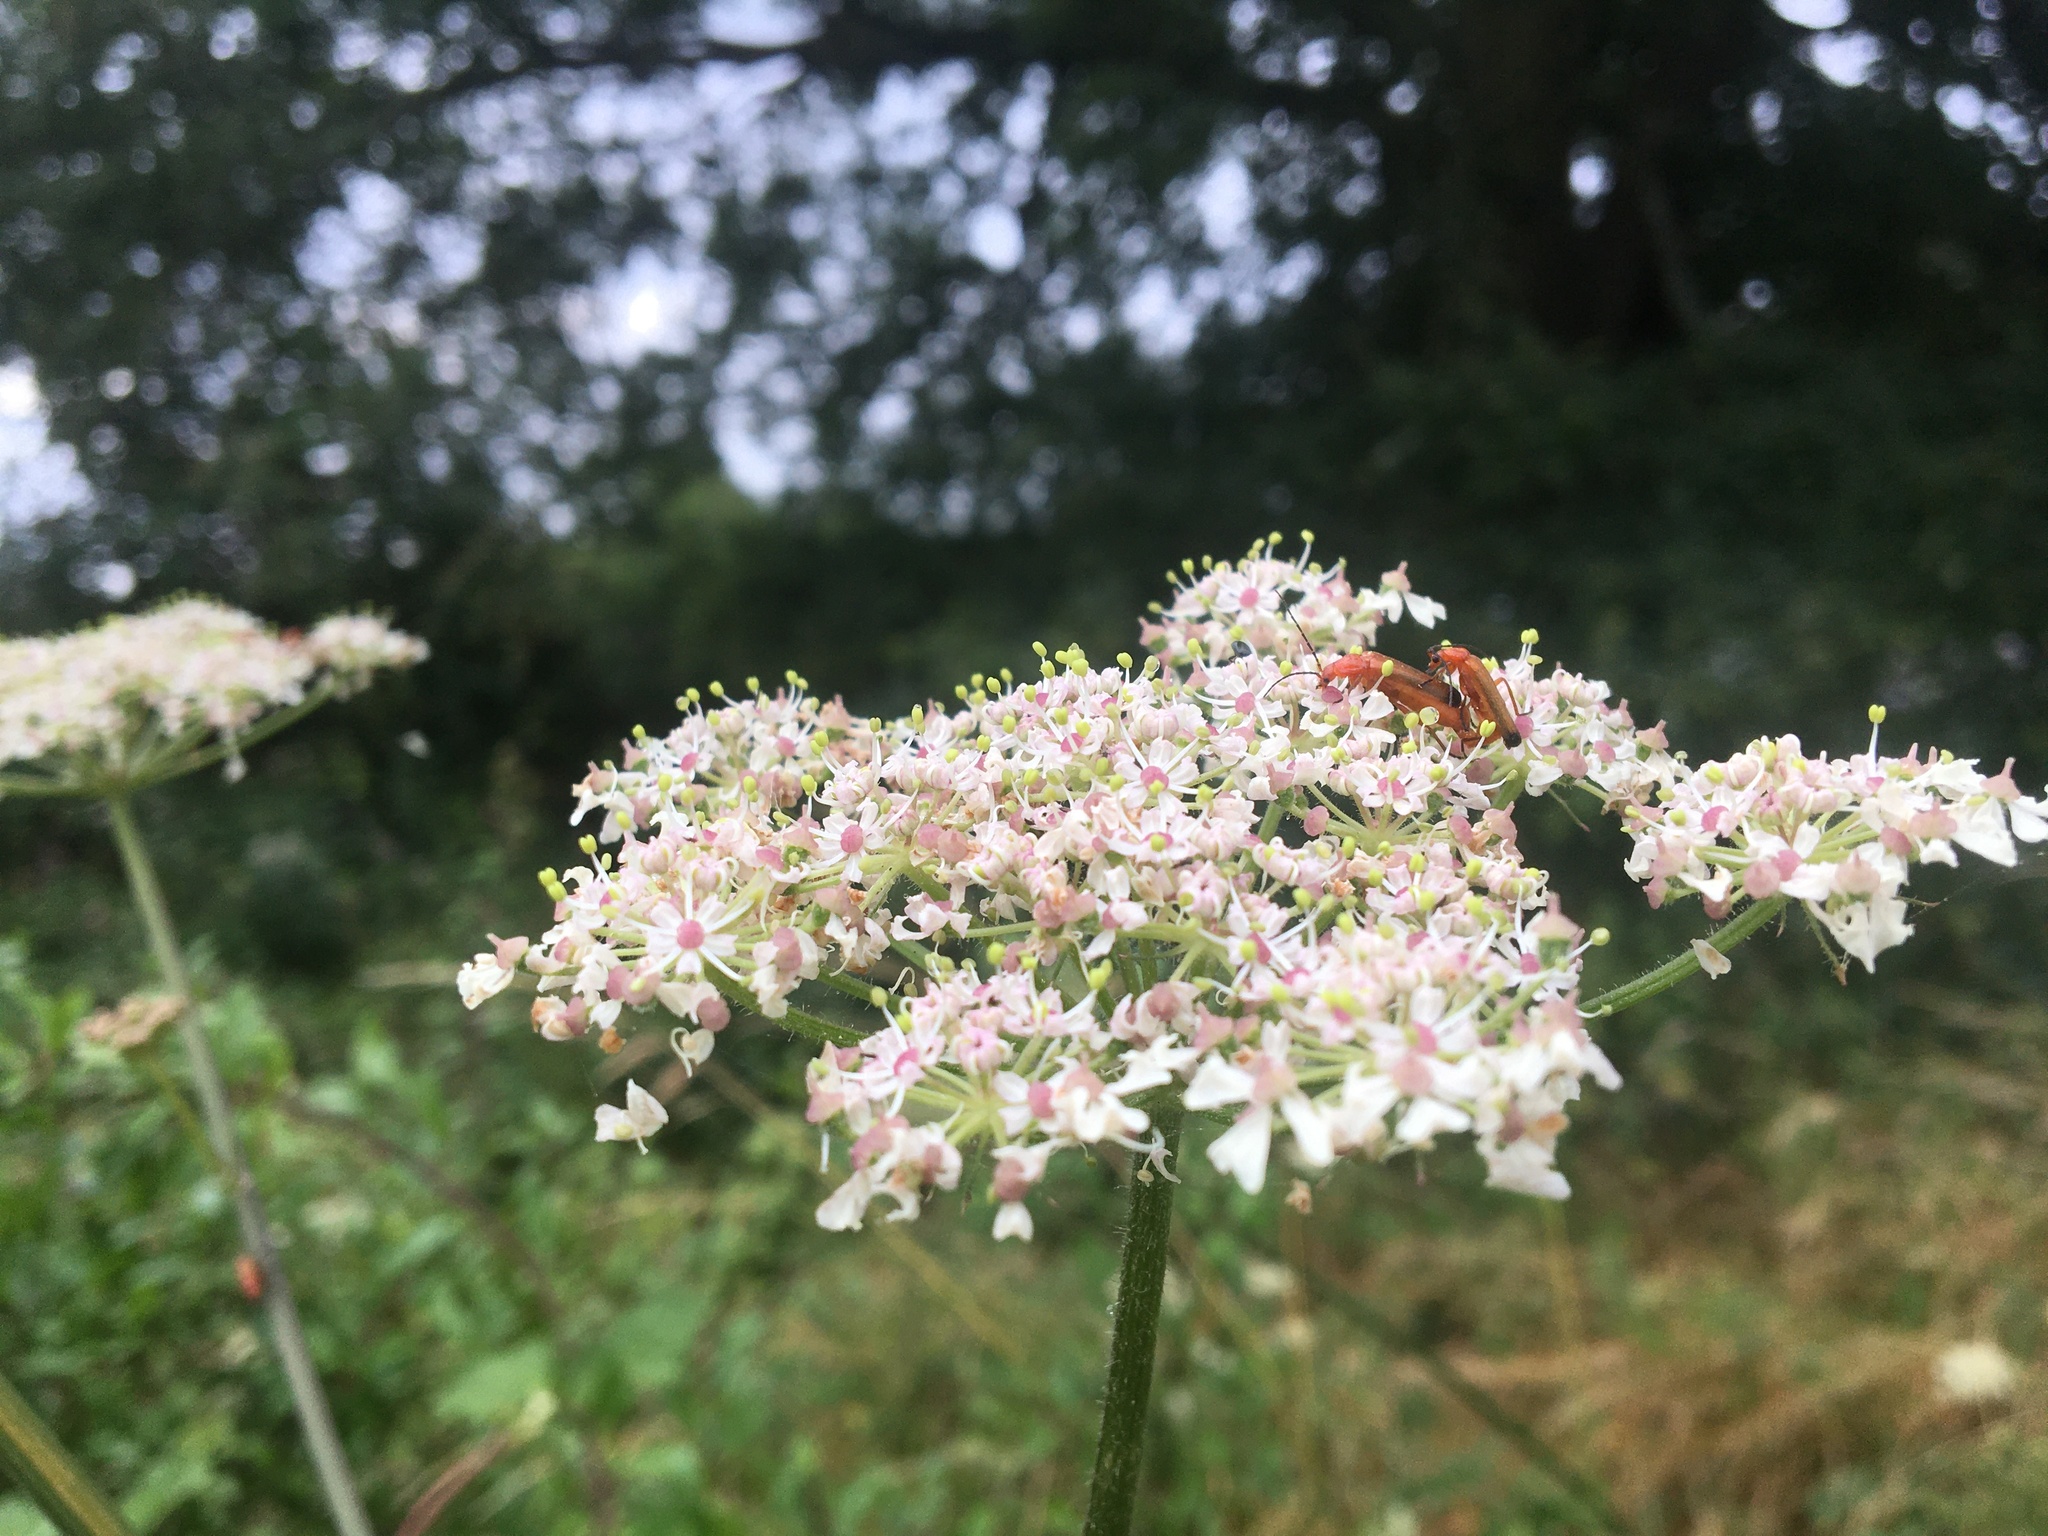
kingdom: Animalia
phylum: Arthropoda
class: Insecta
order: Coleoptera
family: Cantharidae
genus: Rhagonycha
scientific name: Rhagonycha fulva
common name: Common red soldier beetle
